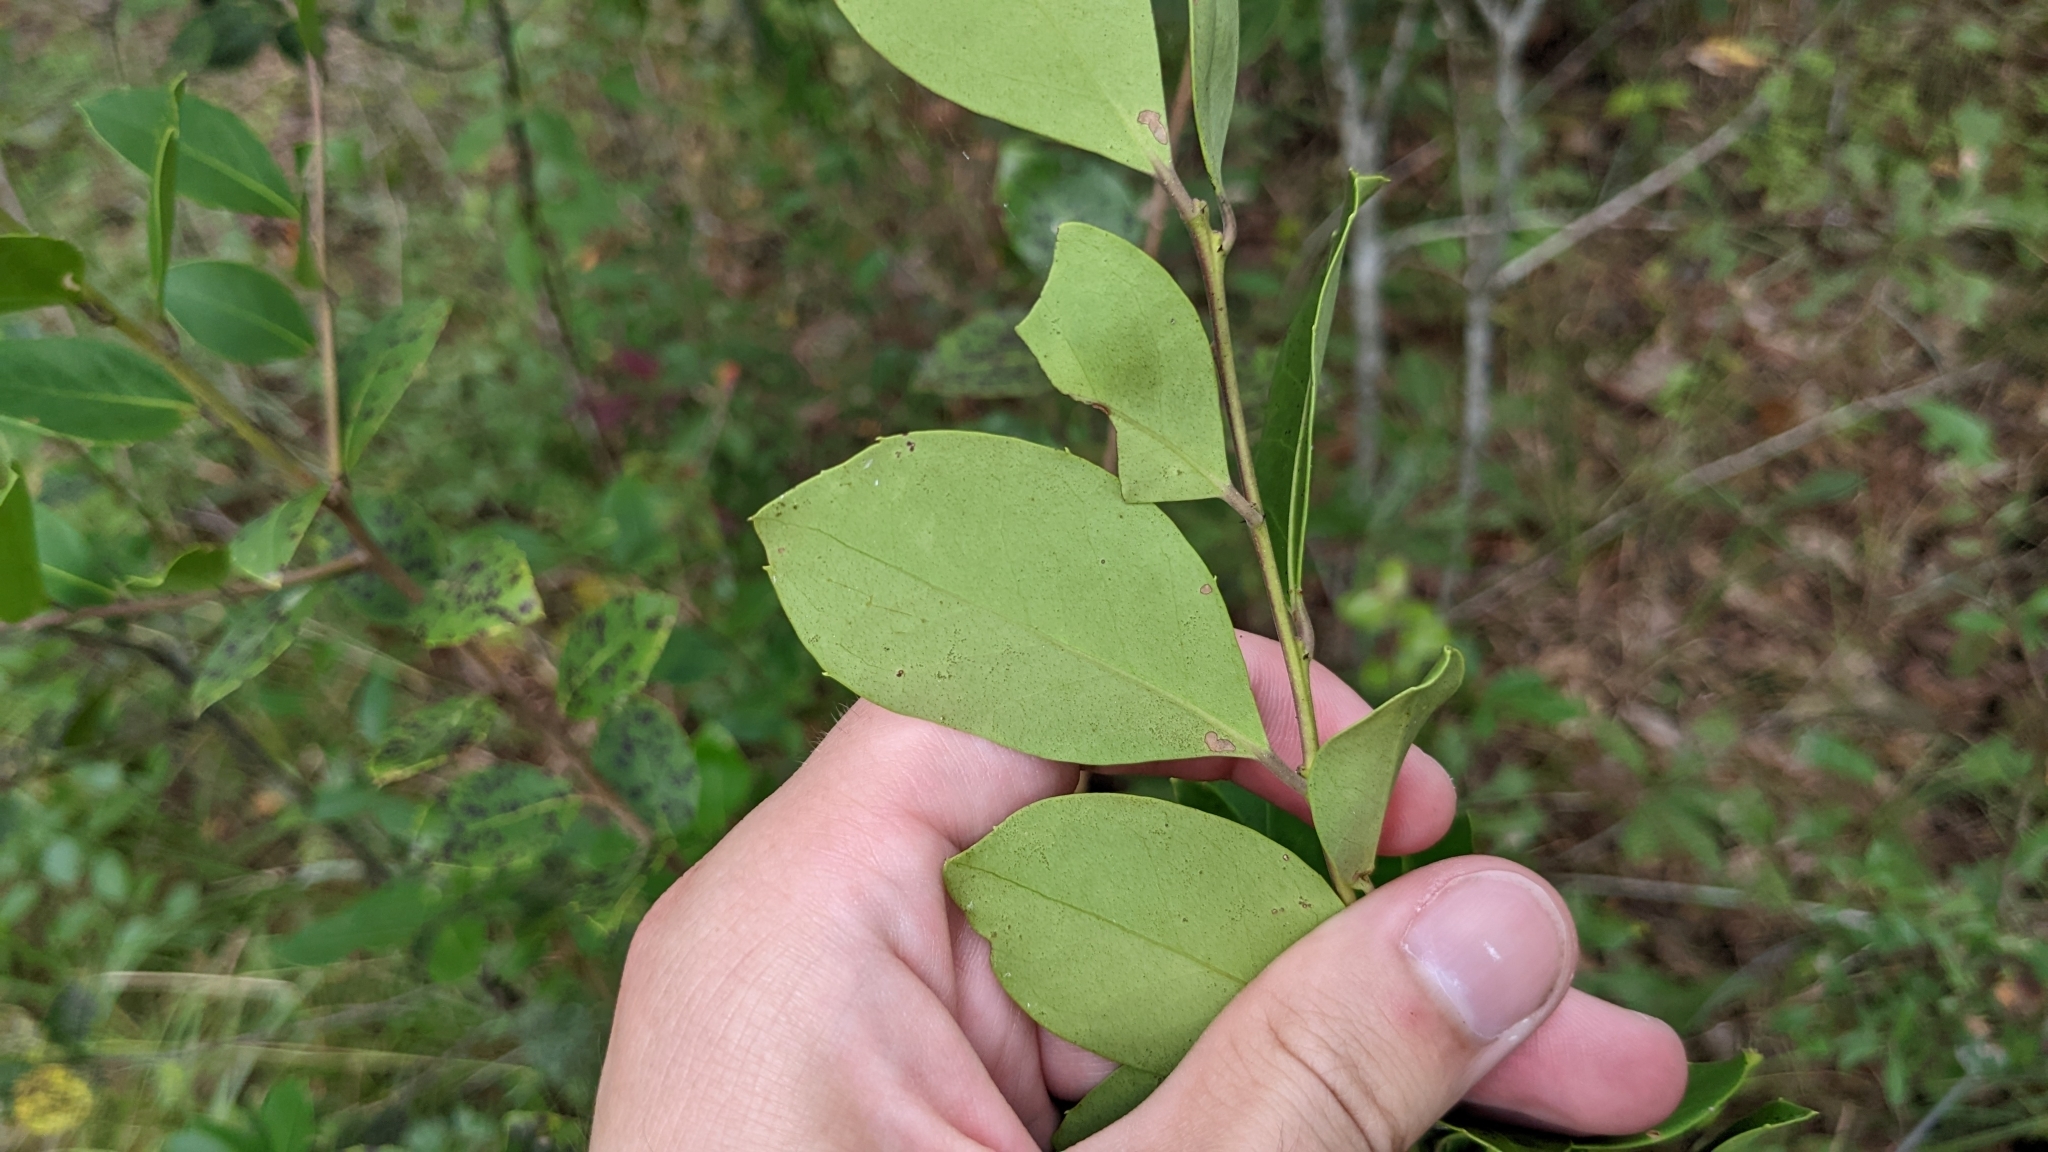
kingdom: Plantae
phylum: Tracheophyta
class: Magnoliopsida
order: Aquifoliales
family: Aquifoliaceae
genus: Ilex
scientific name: Ilex coriacea
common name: Sweet gallberry
